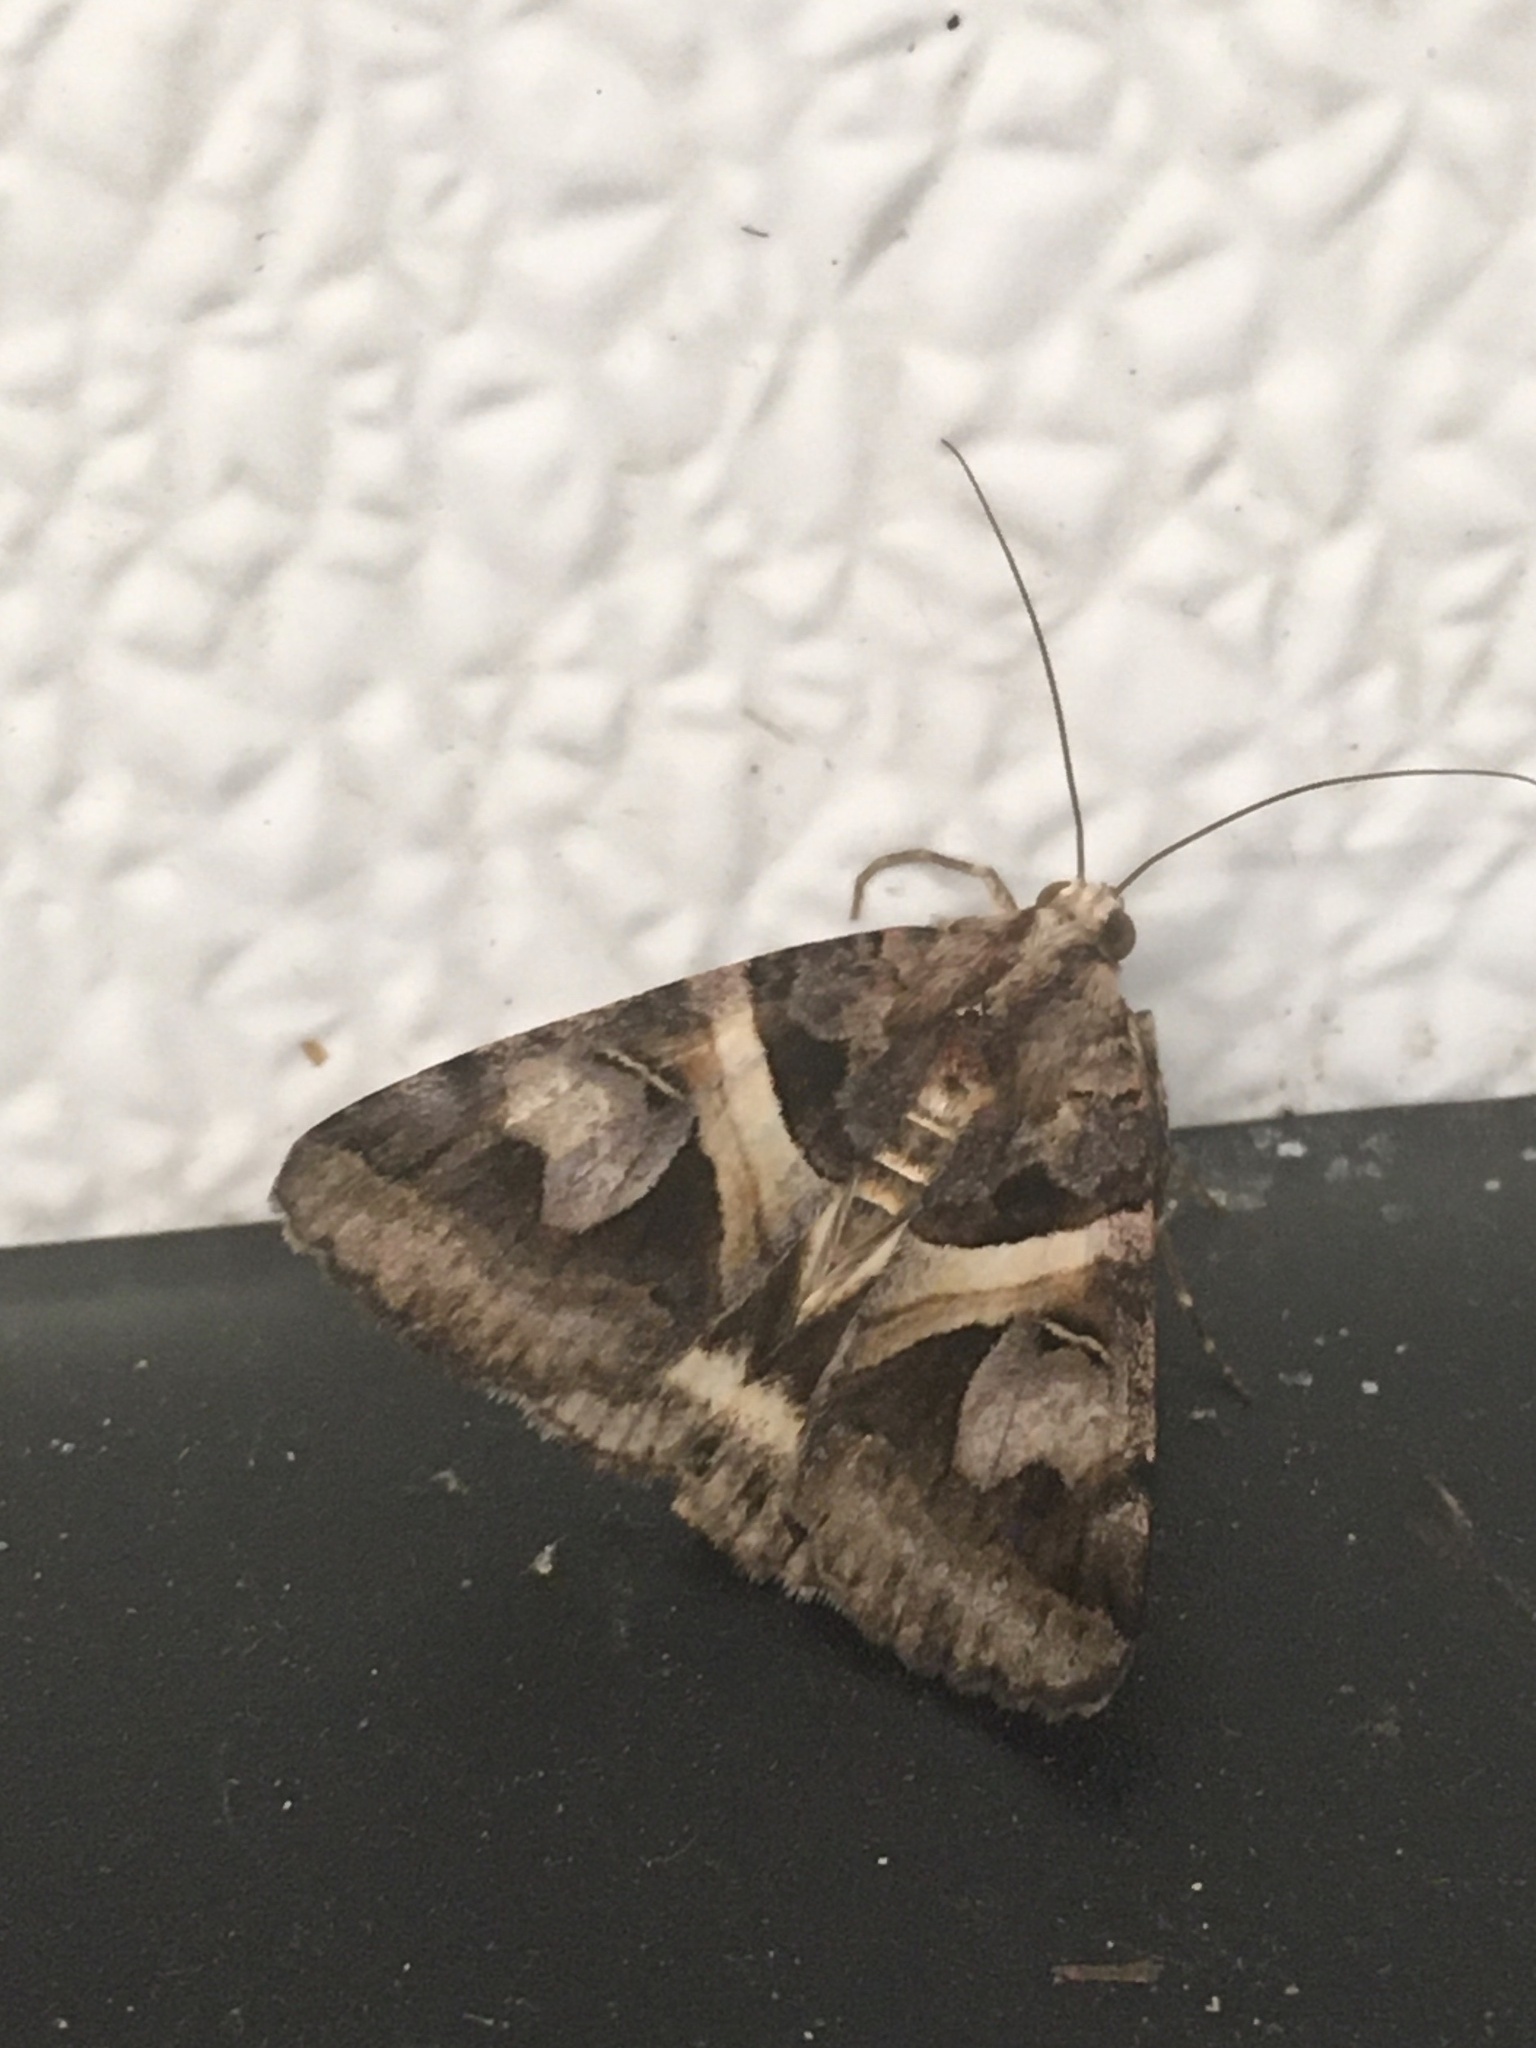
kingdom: Animalia
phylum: Arthropoda
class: Insecta
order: Lepidoptera
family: Erebidae
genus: Drasteria
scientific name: Drasteria grandirena
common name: Figure-seven moth
